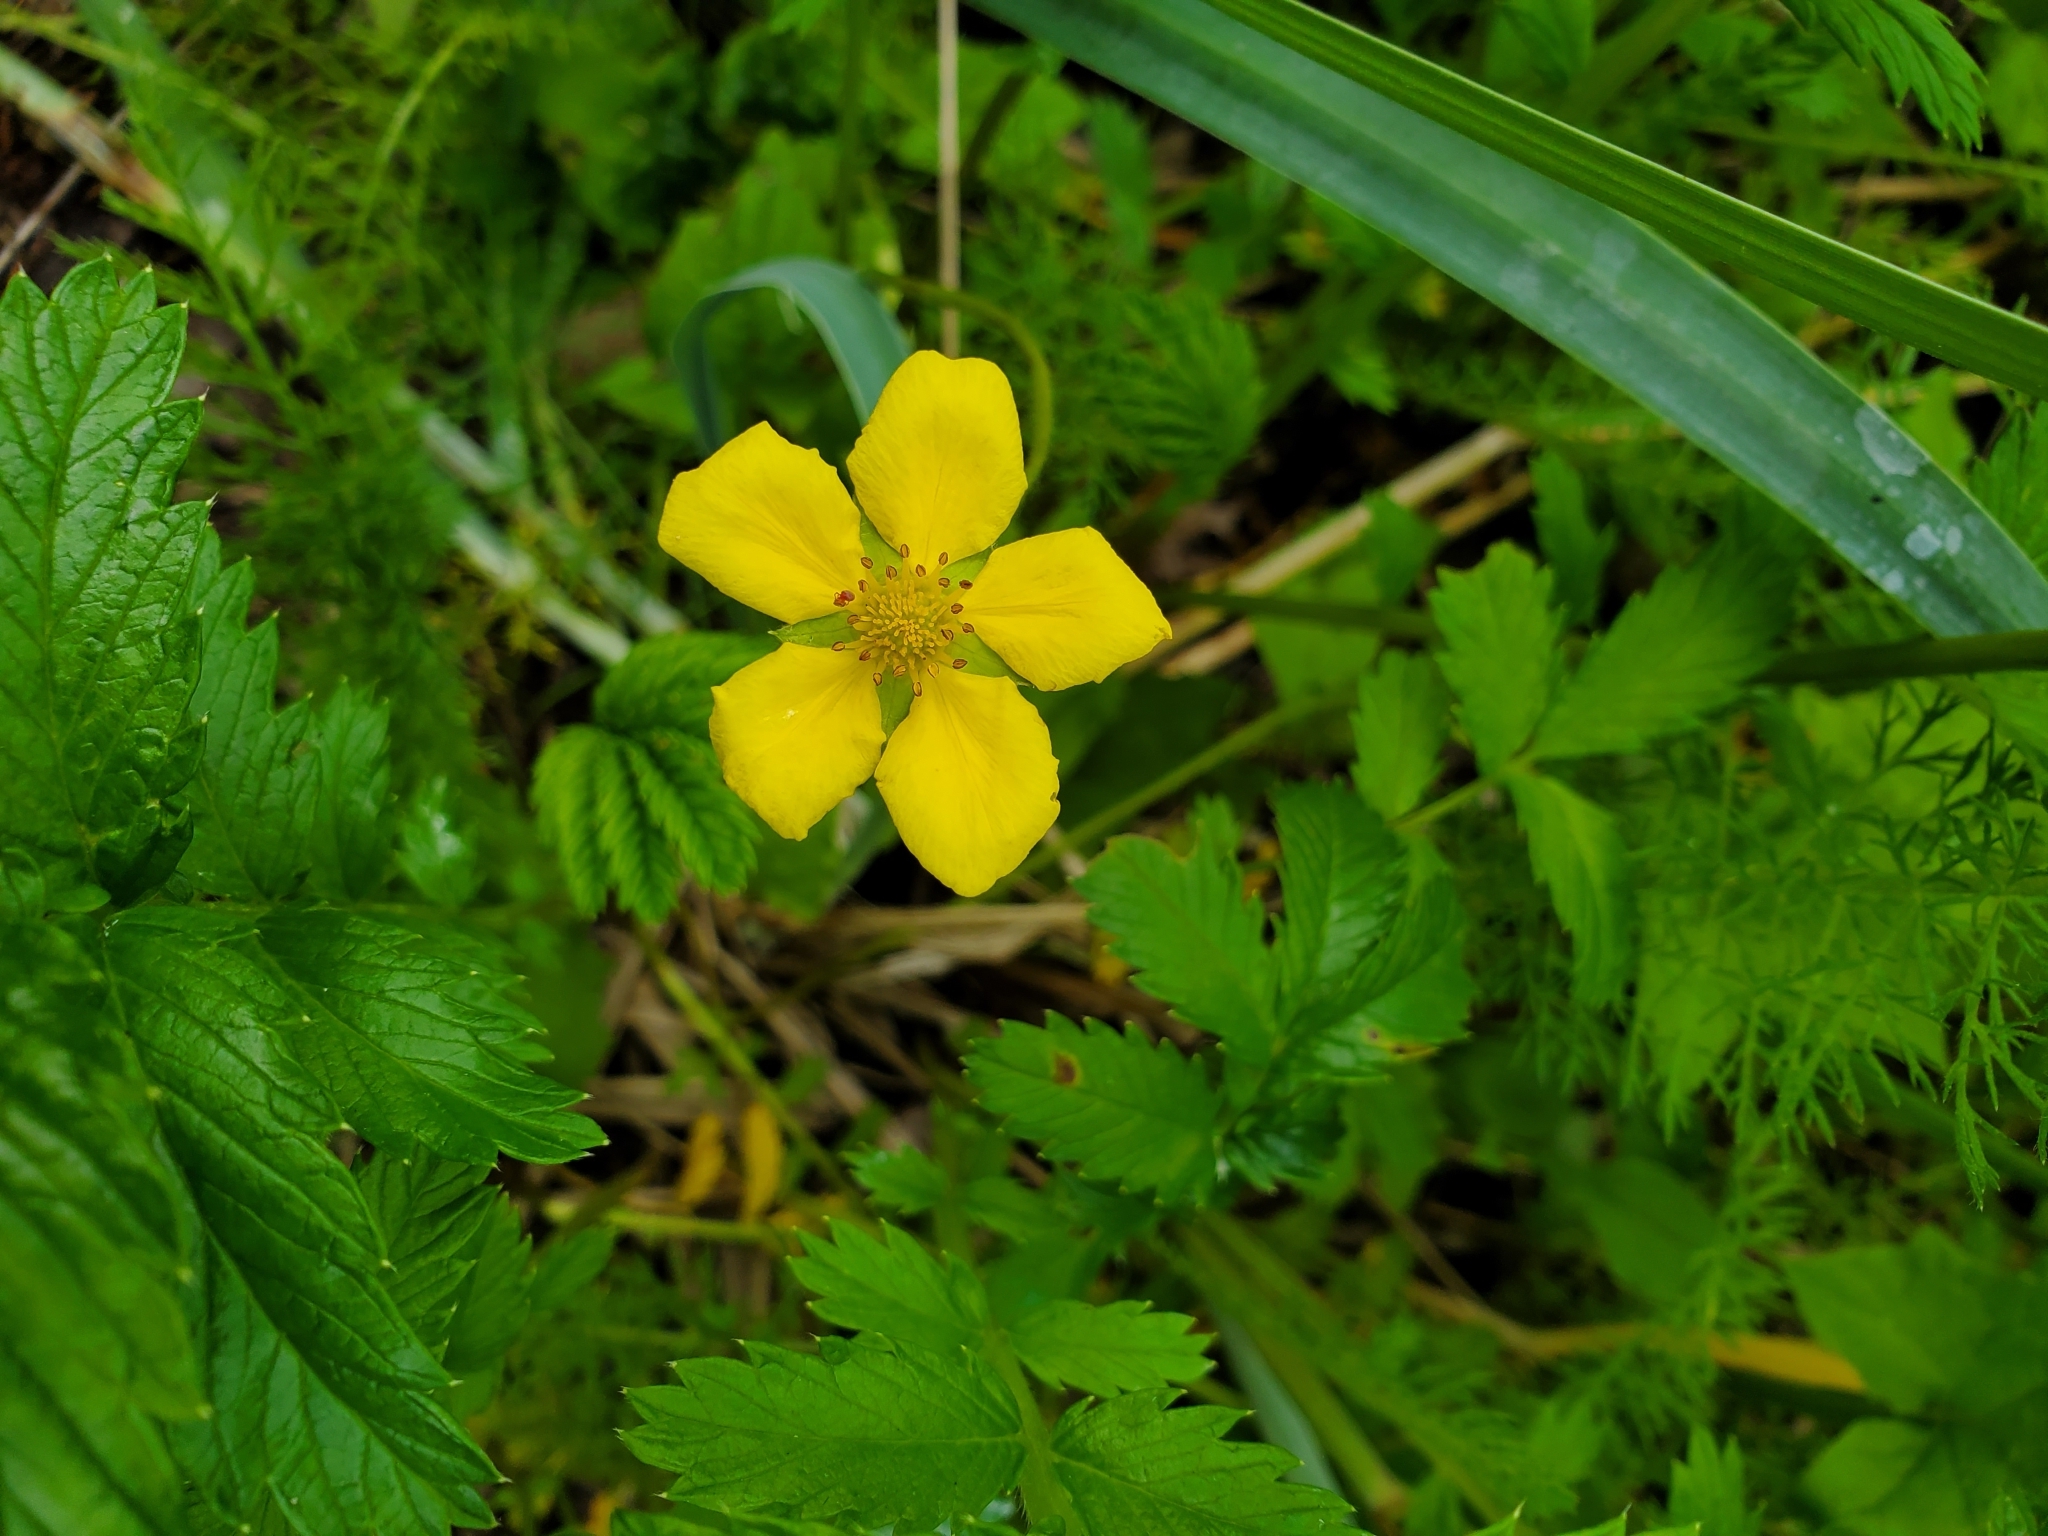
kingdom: Plantae
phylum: Tracheophyta
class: Magnoliopsida
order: Rosales
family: Rosaceae
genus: Argentina
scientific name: Argentina anserina
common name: Common silverweed
